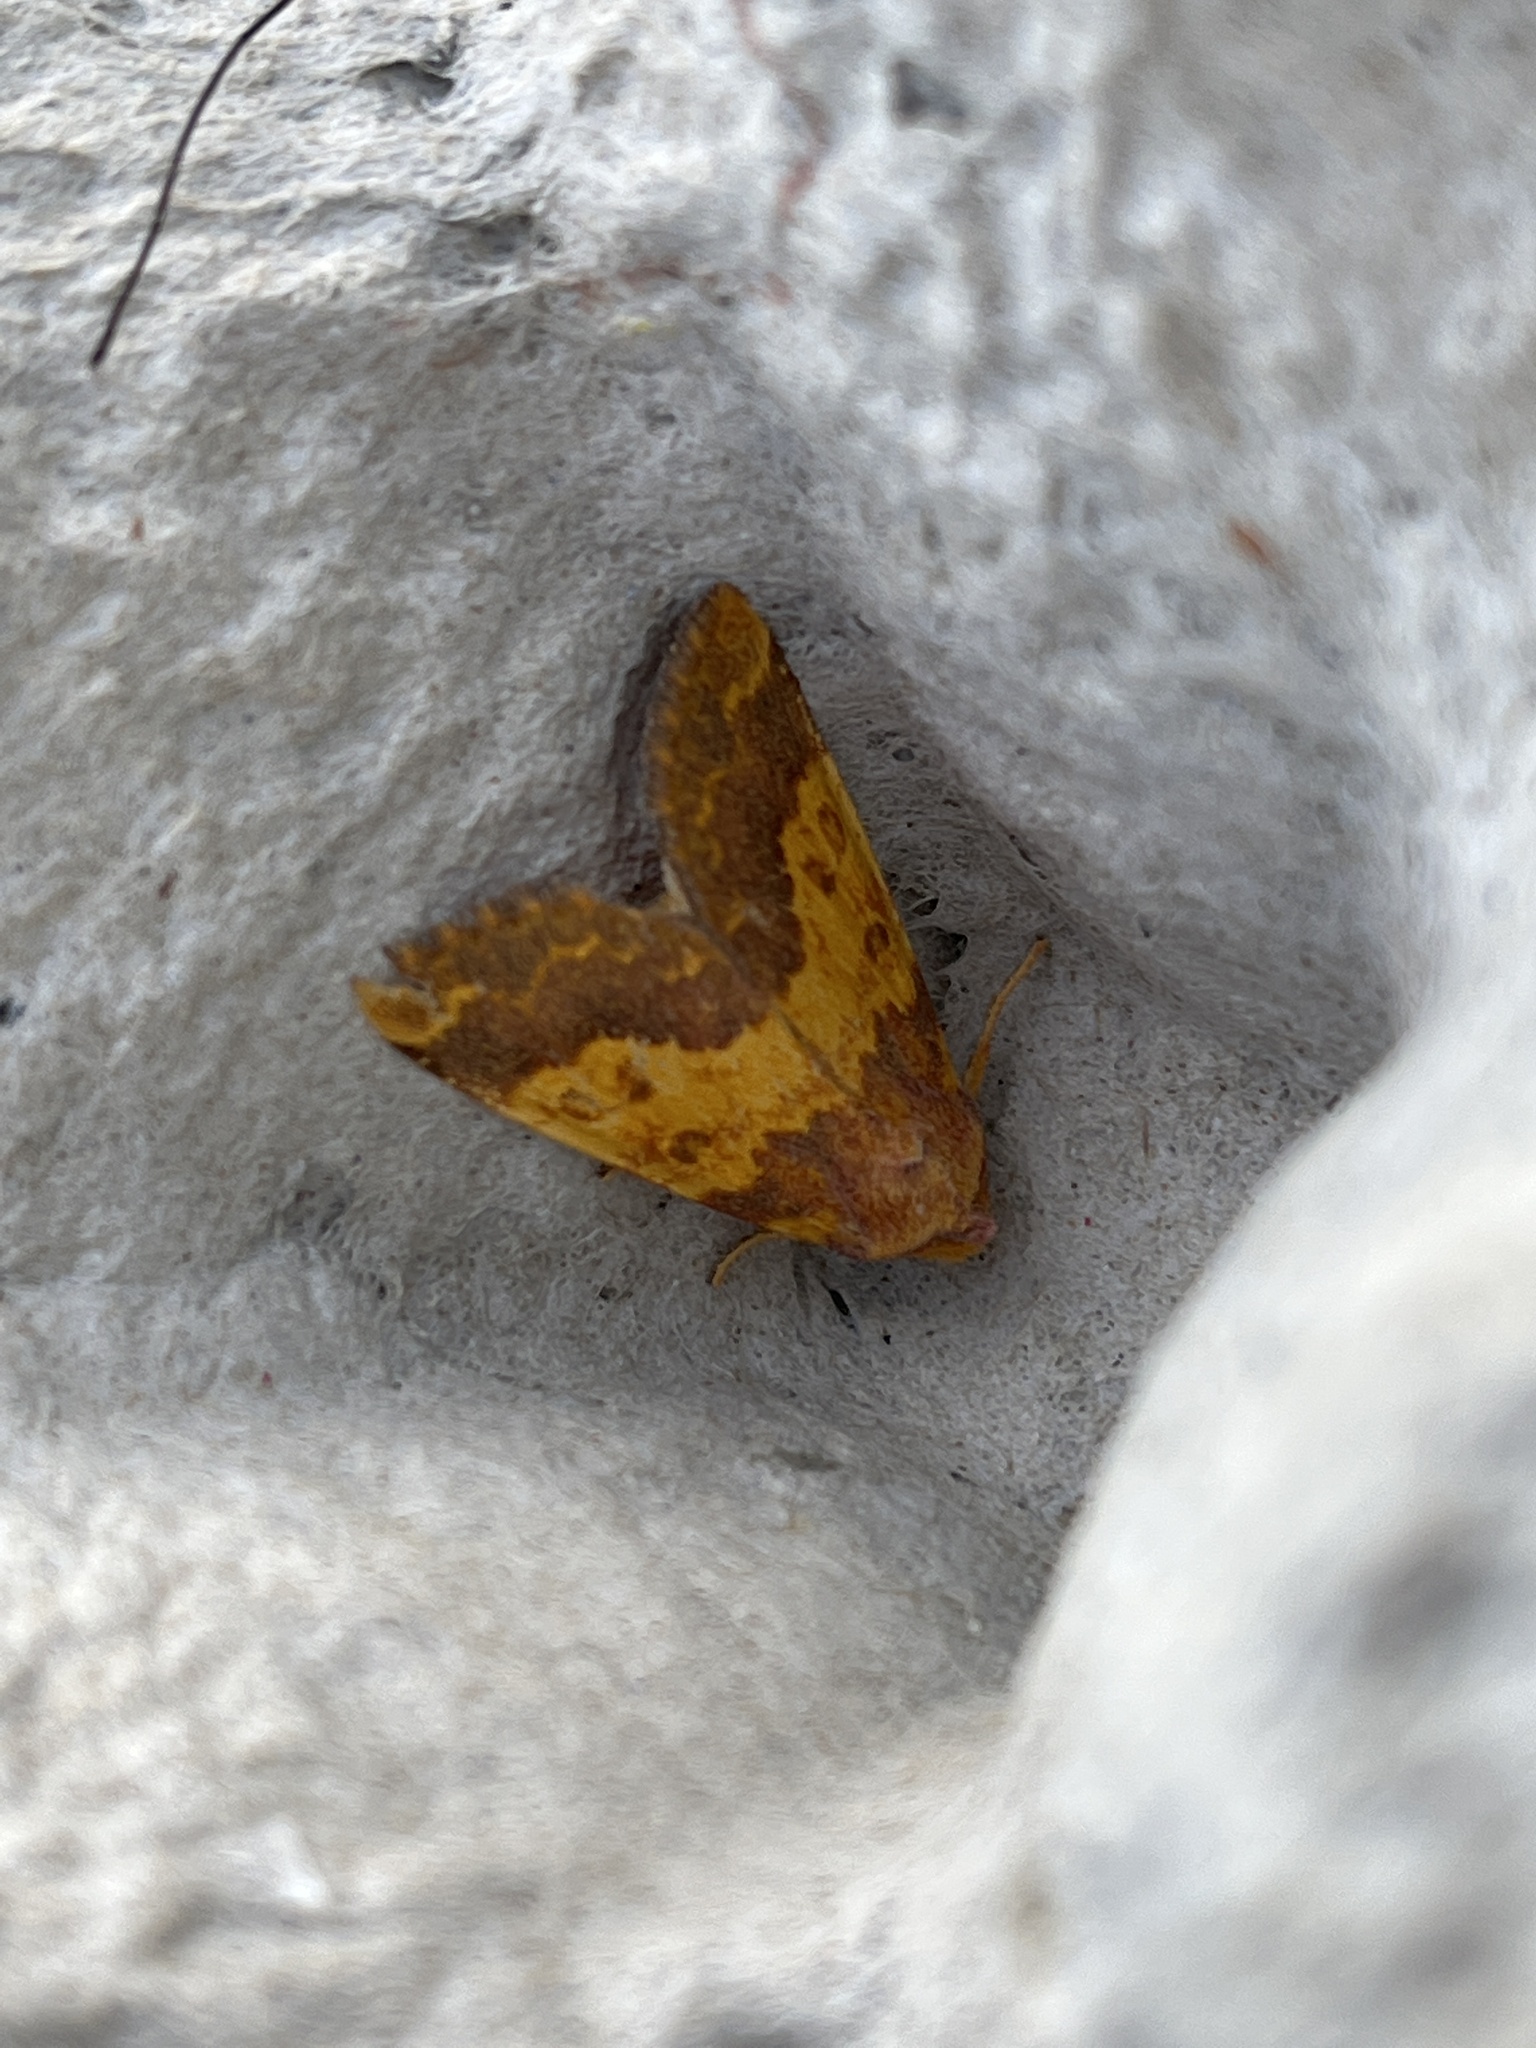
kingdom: Animalia
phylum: Arthropoda
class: Insecta
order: Lepidoptera
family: Noctuidae
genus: Tiliacea
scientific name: Tiliacea aurago
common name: Barred sallow
